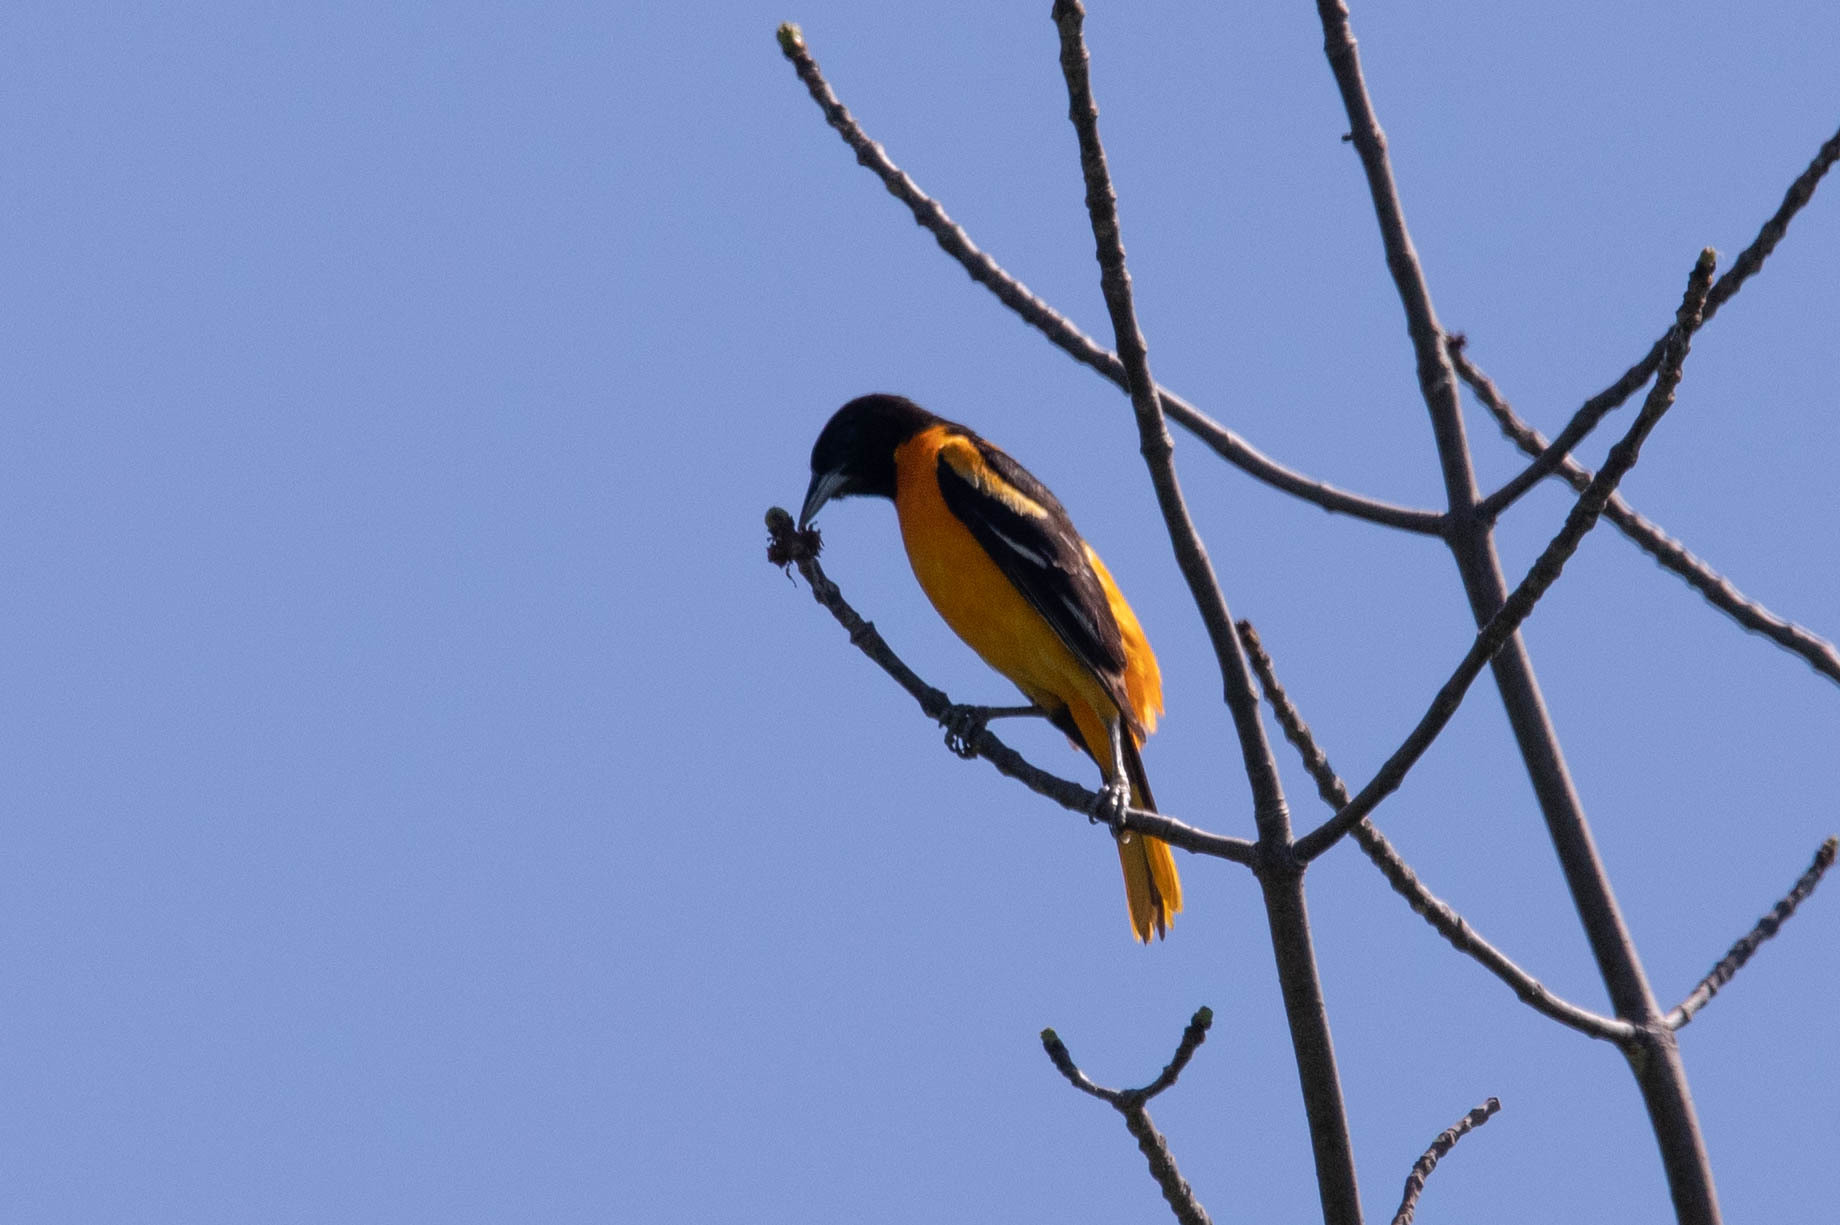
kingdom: Animalia
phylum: Chordata
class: Aves
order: Passeriformes
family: Icteridae
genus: Icterus
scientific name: Icterus galbula
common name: Baltimore oriole
